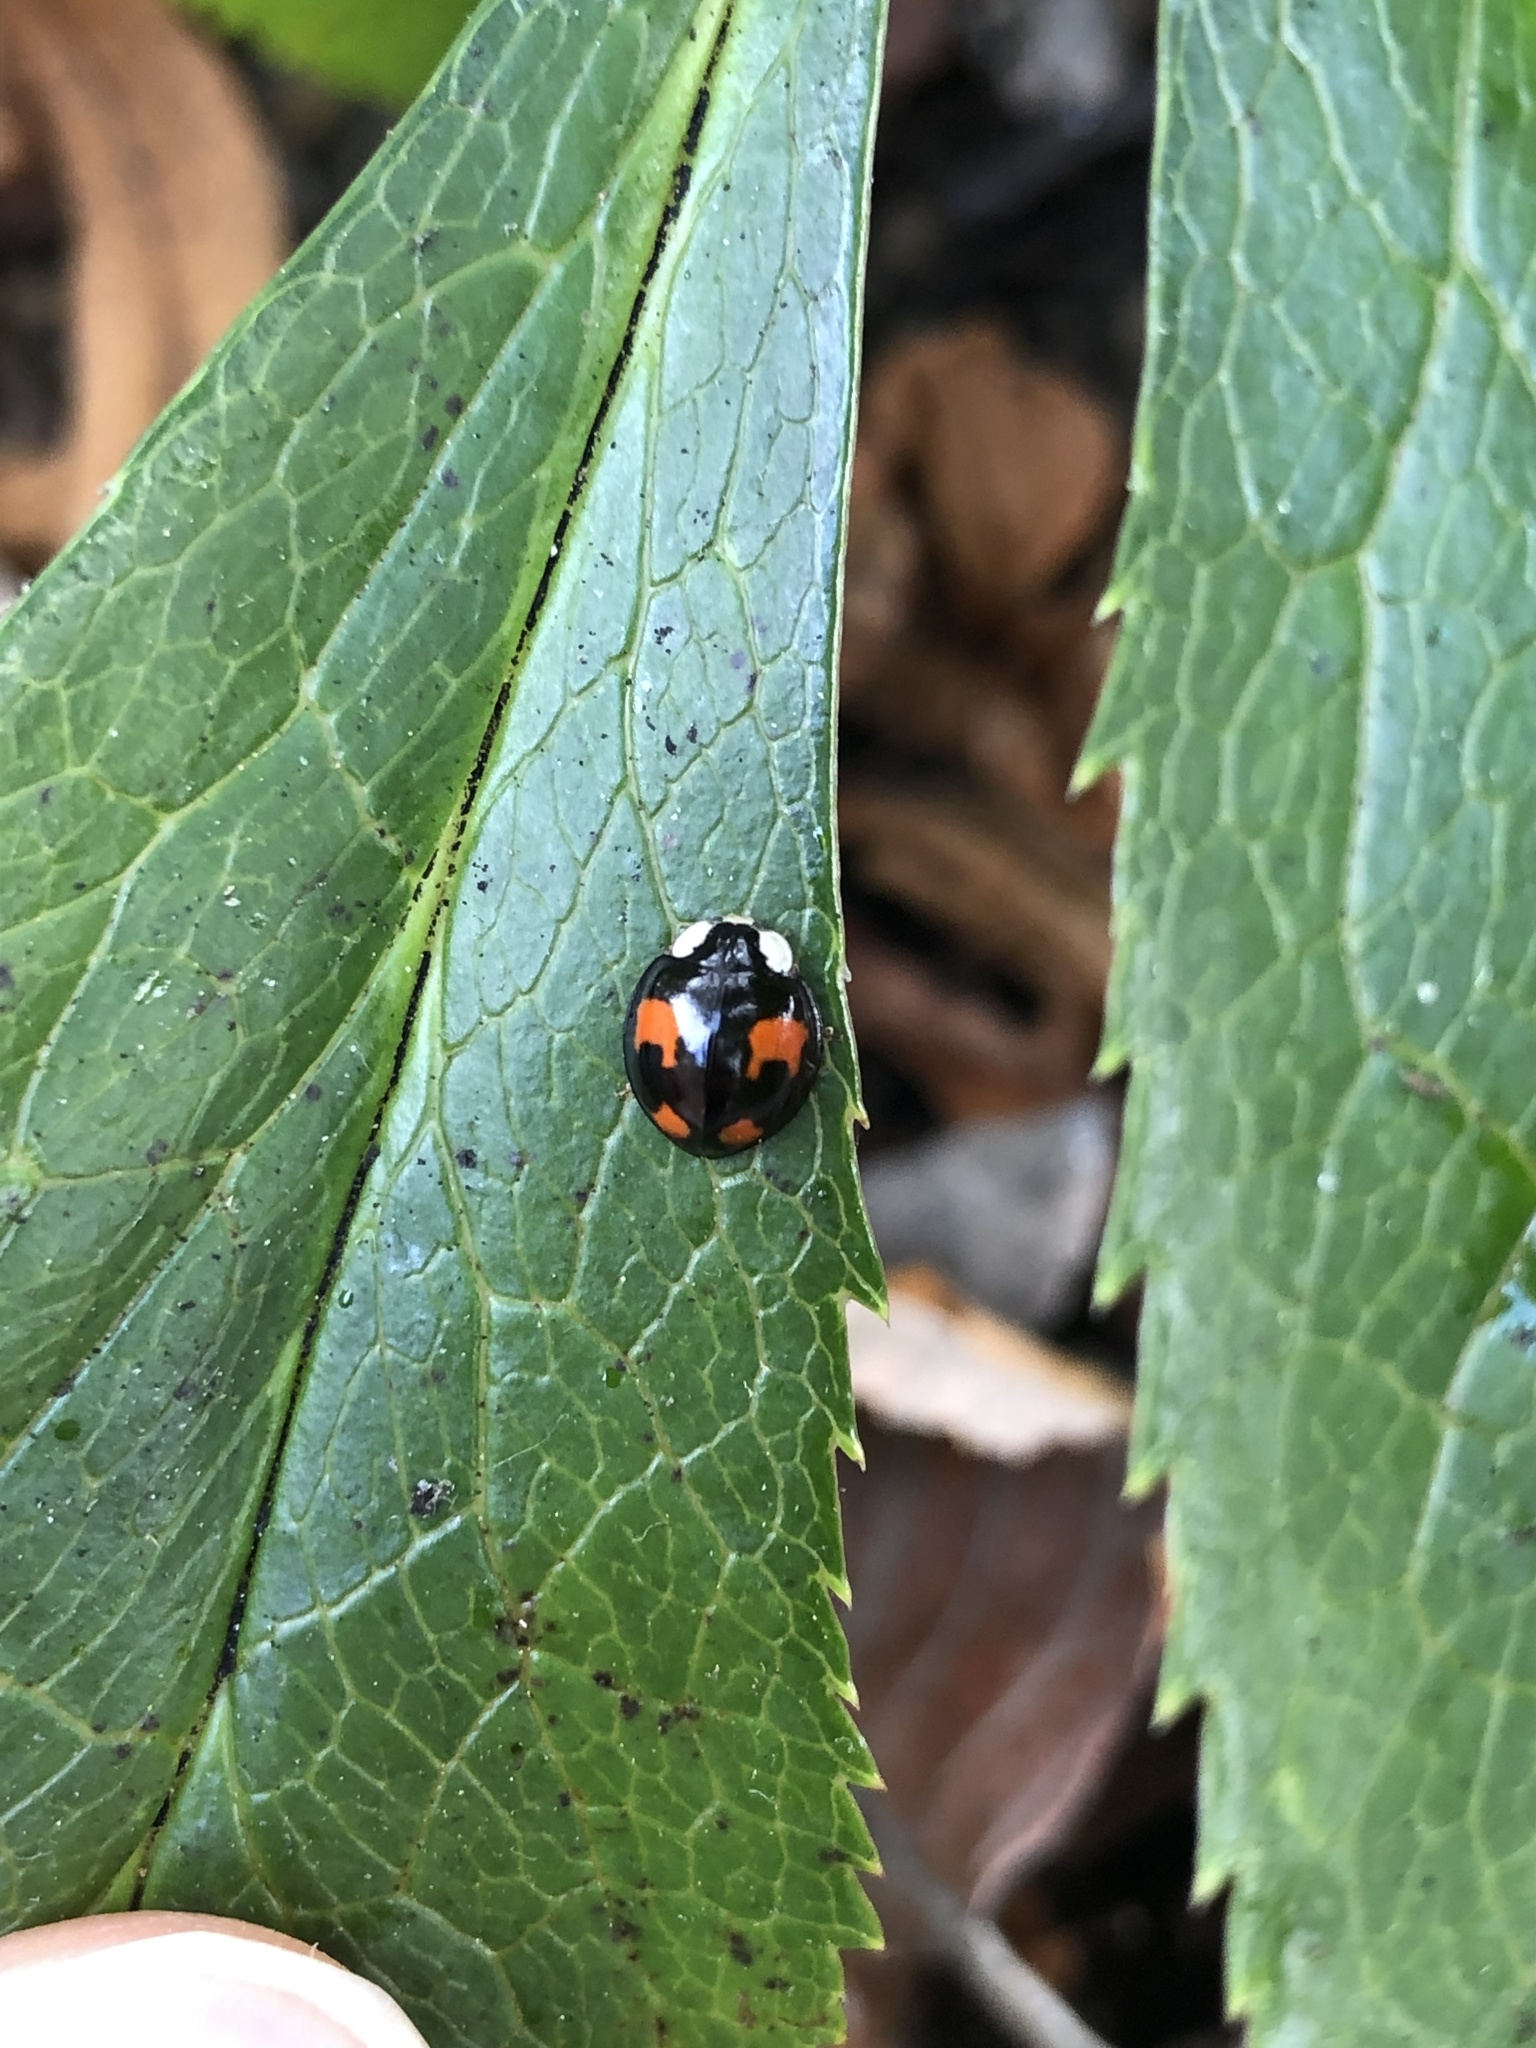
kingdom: Animalia
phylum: Arthropoda
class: Insecta
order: Coleoptera
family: Coccinellidae
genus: Harmonia
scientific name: Harmonia axyridis
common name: Harlequin ladybird
